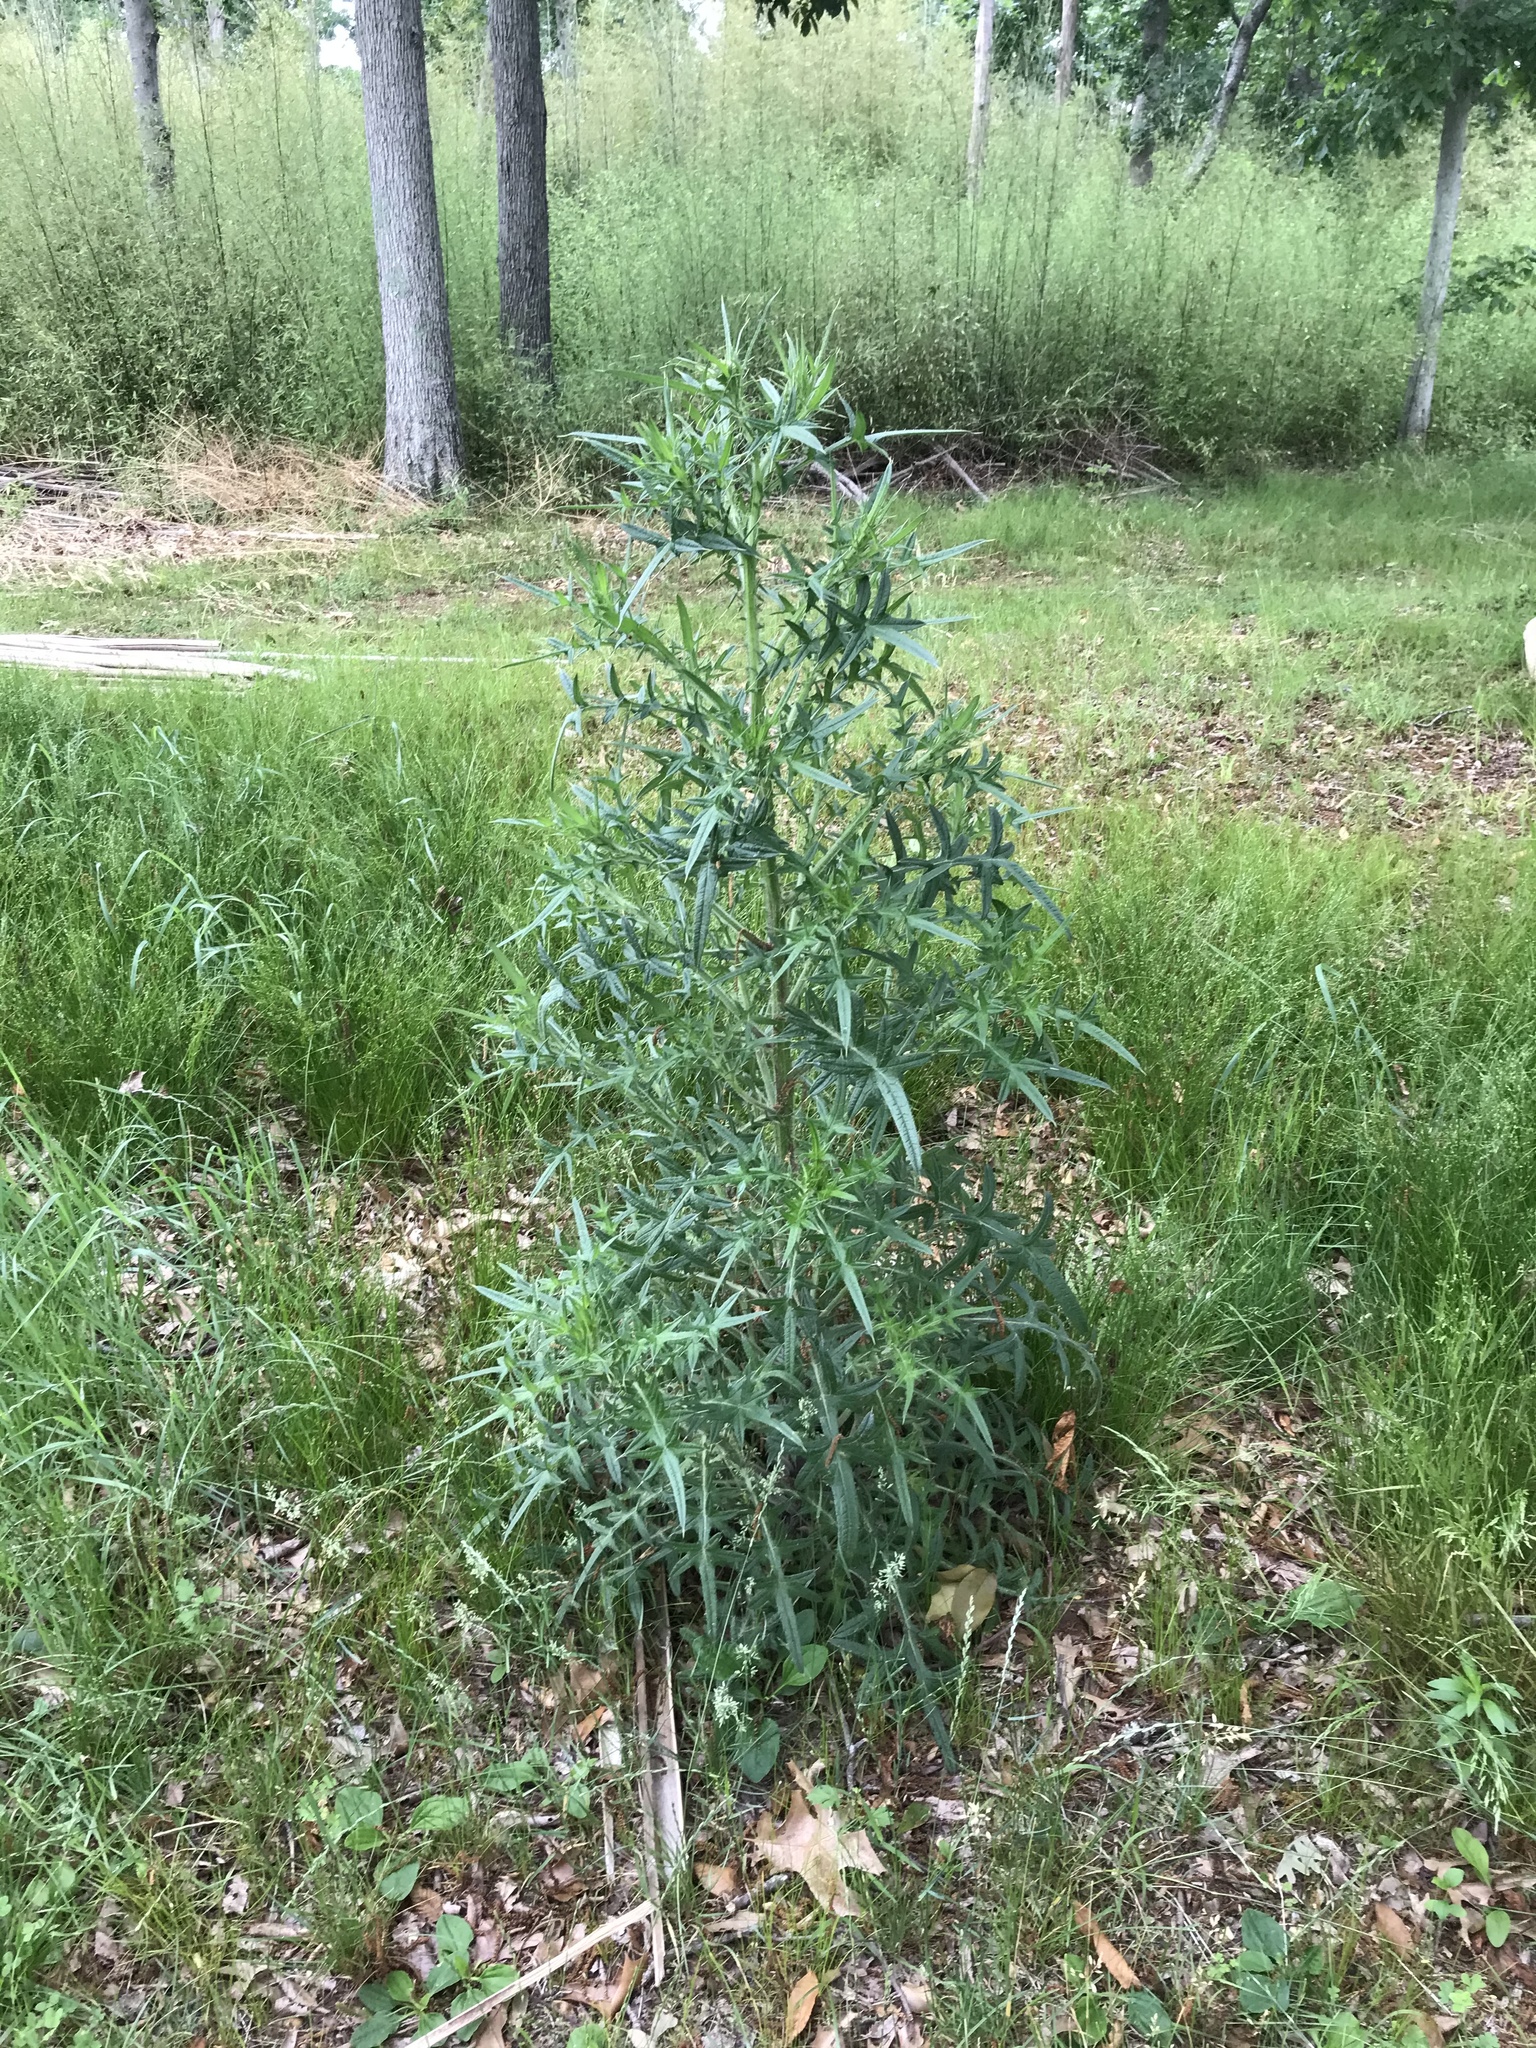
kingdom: Plantae
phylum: Tracheophyta
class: Magnoliopsida
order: Asterales
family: Asteraceae
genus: Cirsium
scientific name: Cirsium vulgare
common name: Bull thistle
